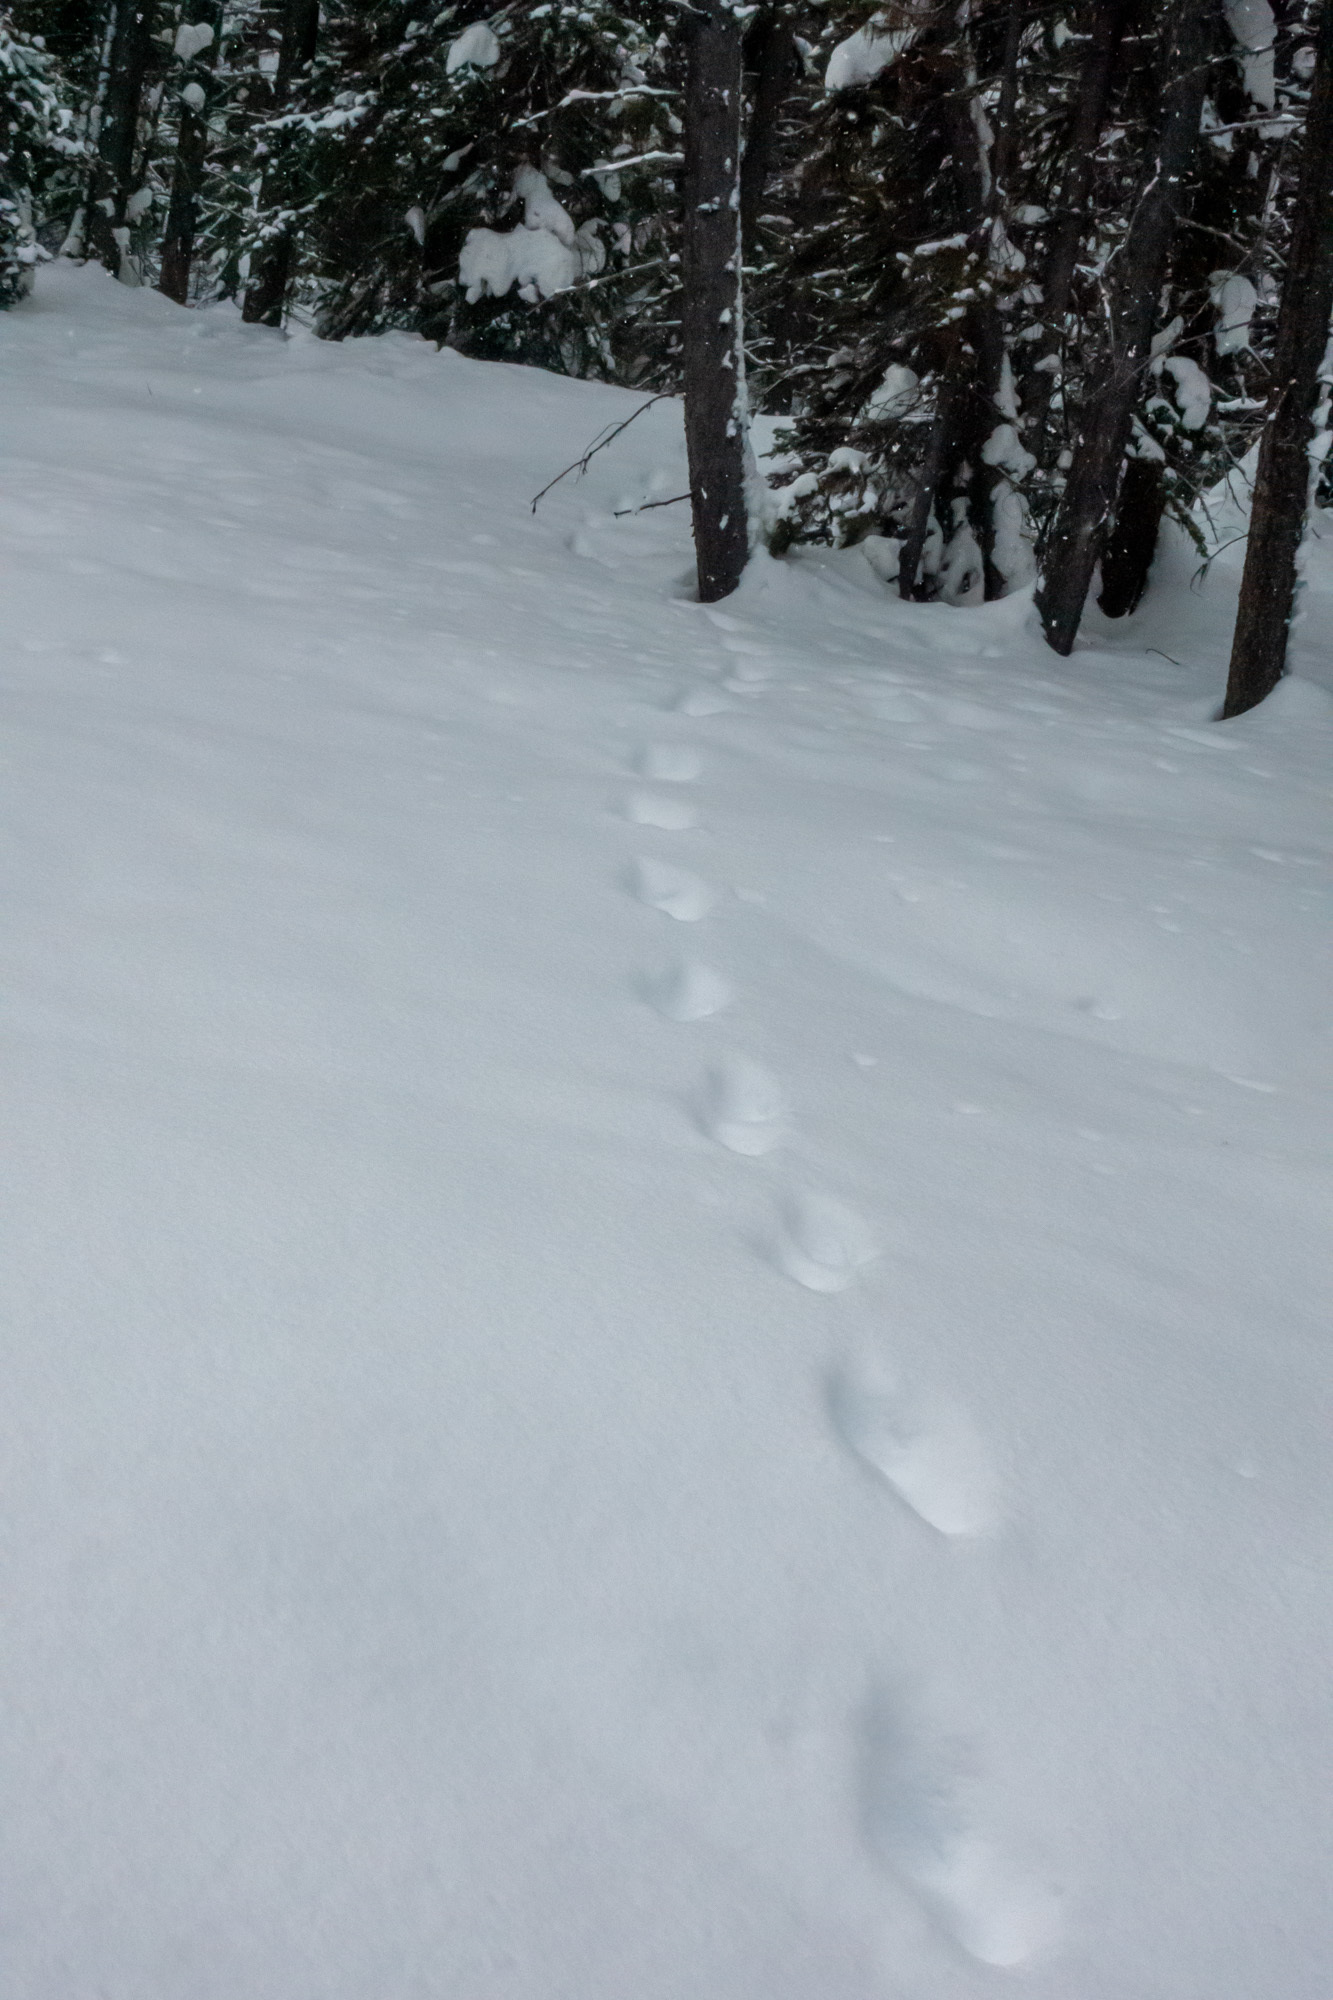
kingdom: Animalia
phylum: Chordata
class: Mammalia
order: Carnivora
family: Mustelidae
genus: Gulo
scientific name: Gulo gulo
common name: Wolverine
